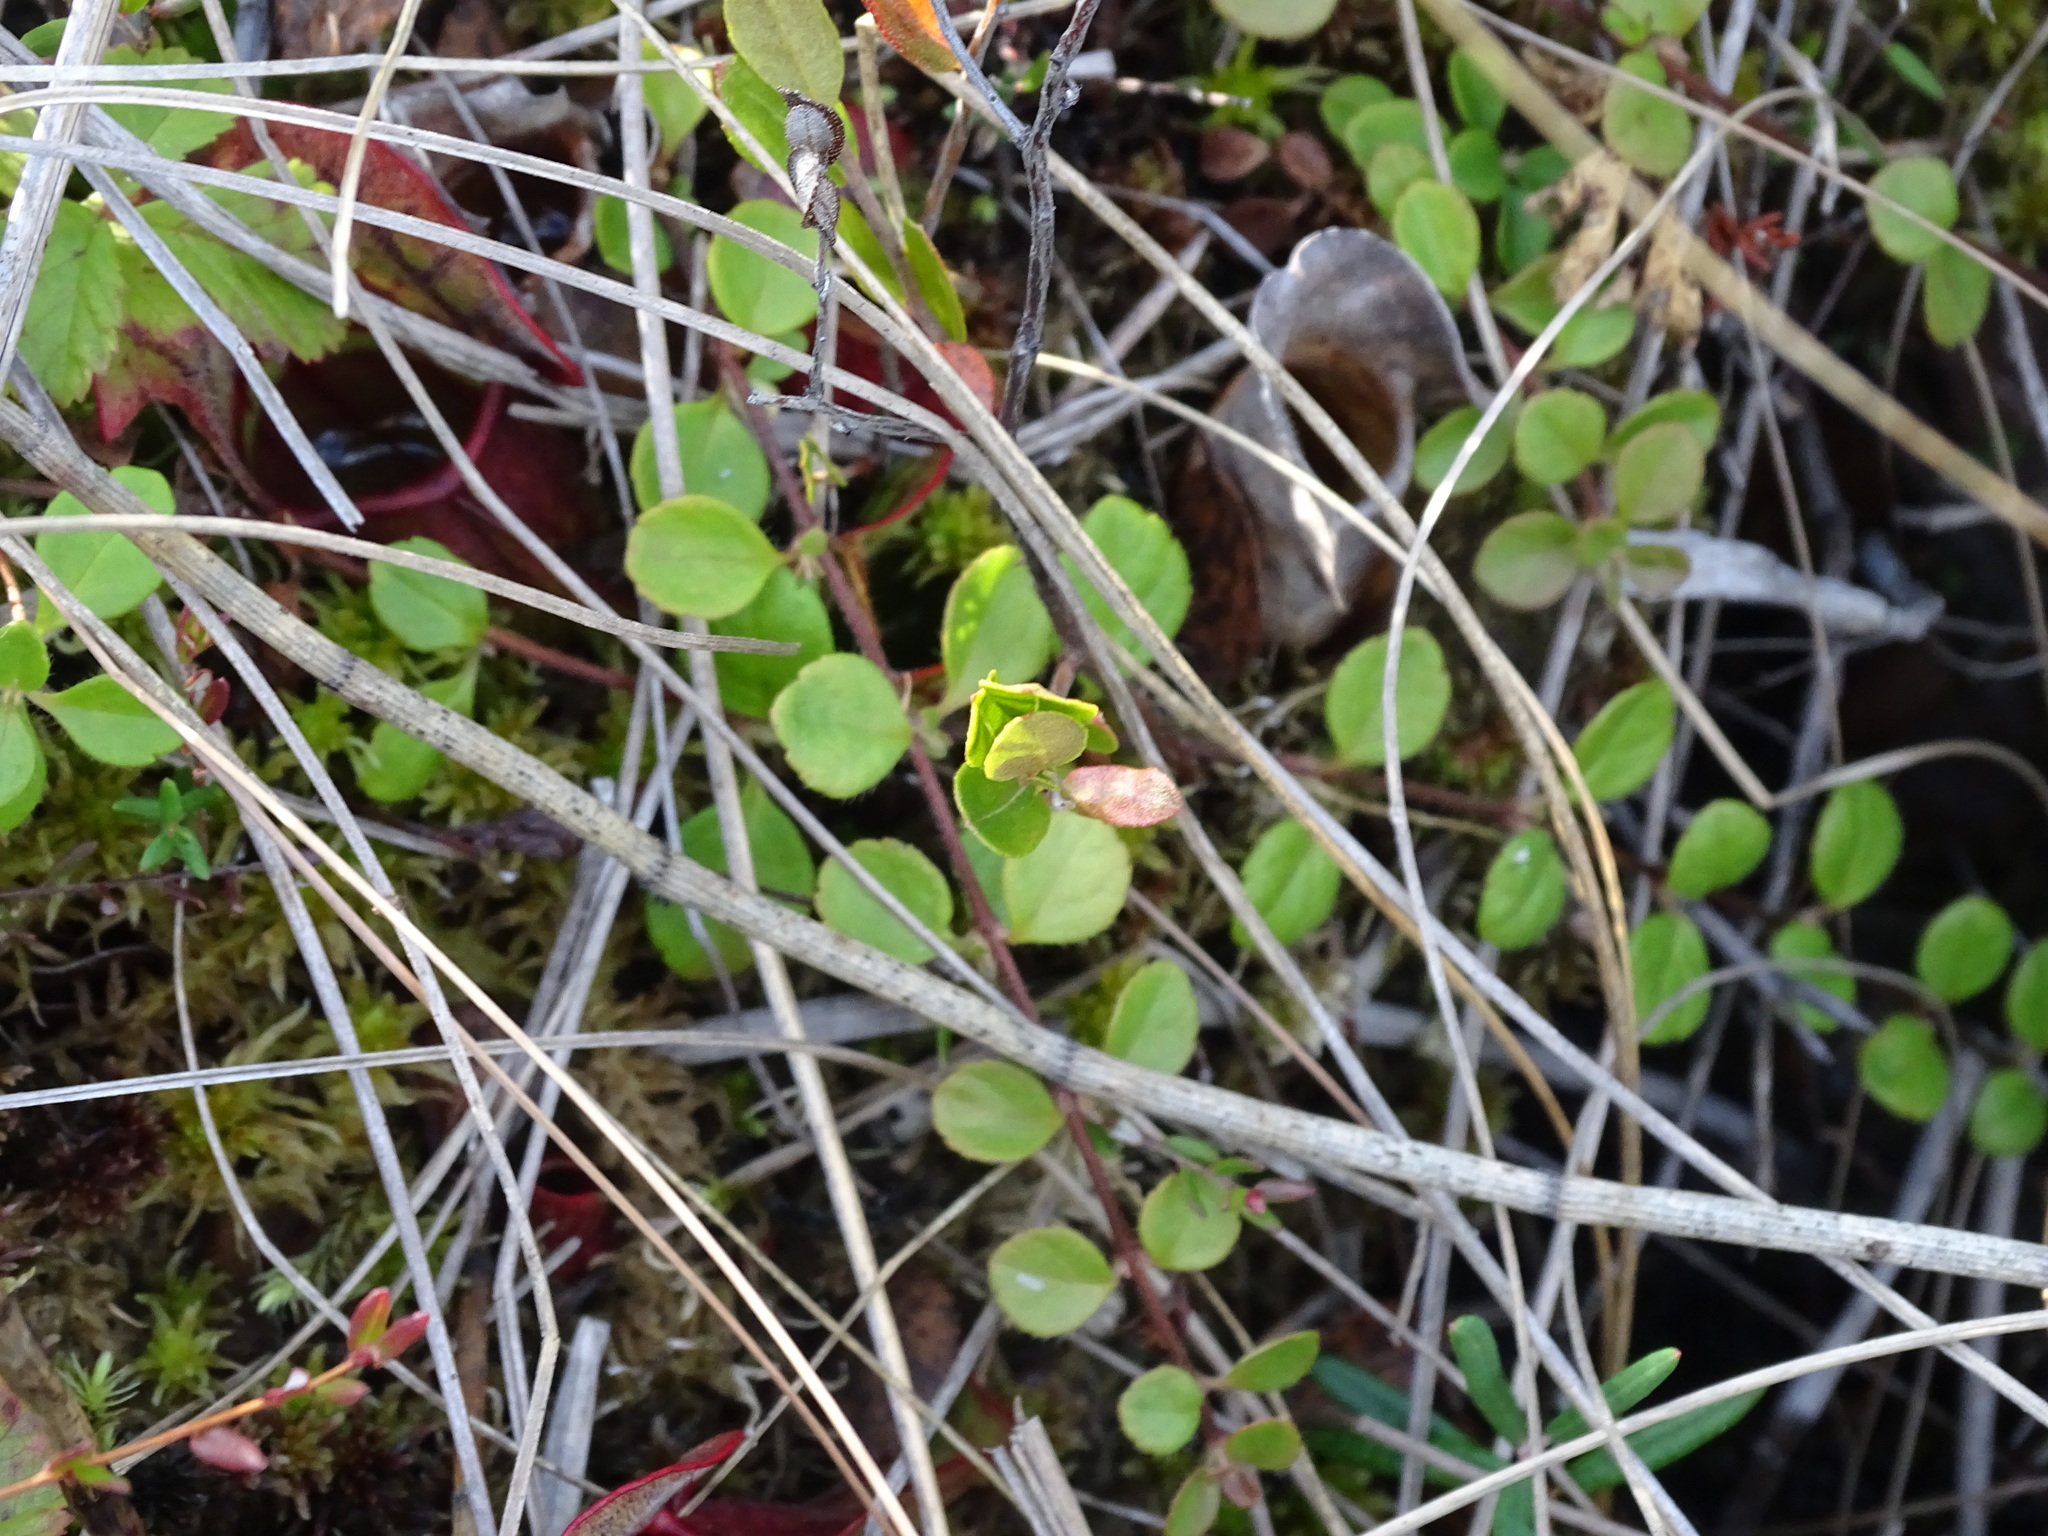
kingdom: Plantae
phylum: Tracheophyta
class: Magnoliopsida
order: Dipsacales
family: Caprifoliaceae
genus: Linnaea
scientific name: Linnaea borealis
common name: Twinflower
